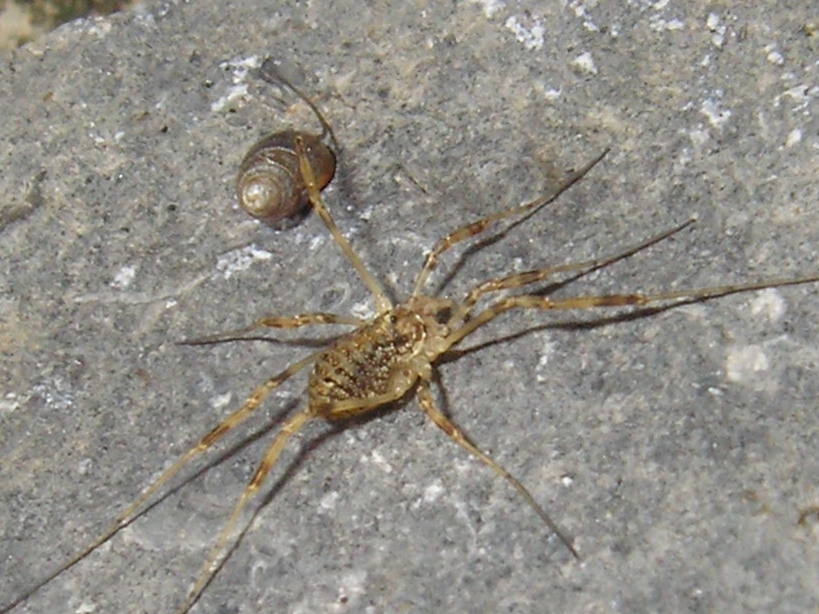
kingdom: Animalia
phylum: Arthropoda
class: Arachnida
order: Opiliones
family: Phalangiidae
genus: Paroligolophus
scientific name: Paroligolophus agrestis
